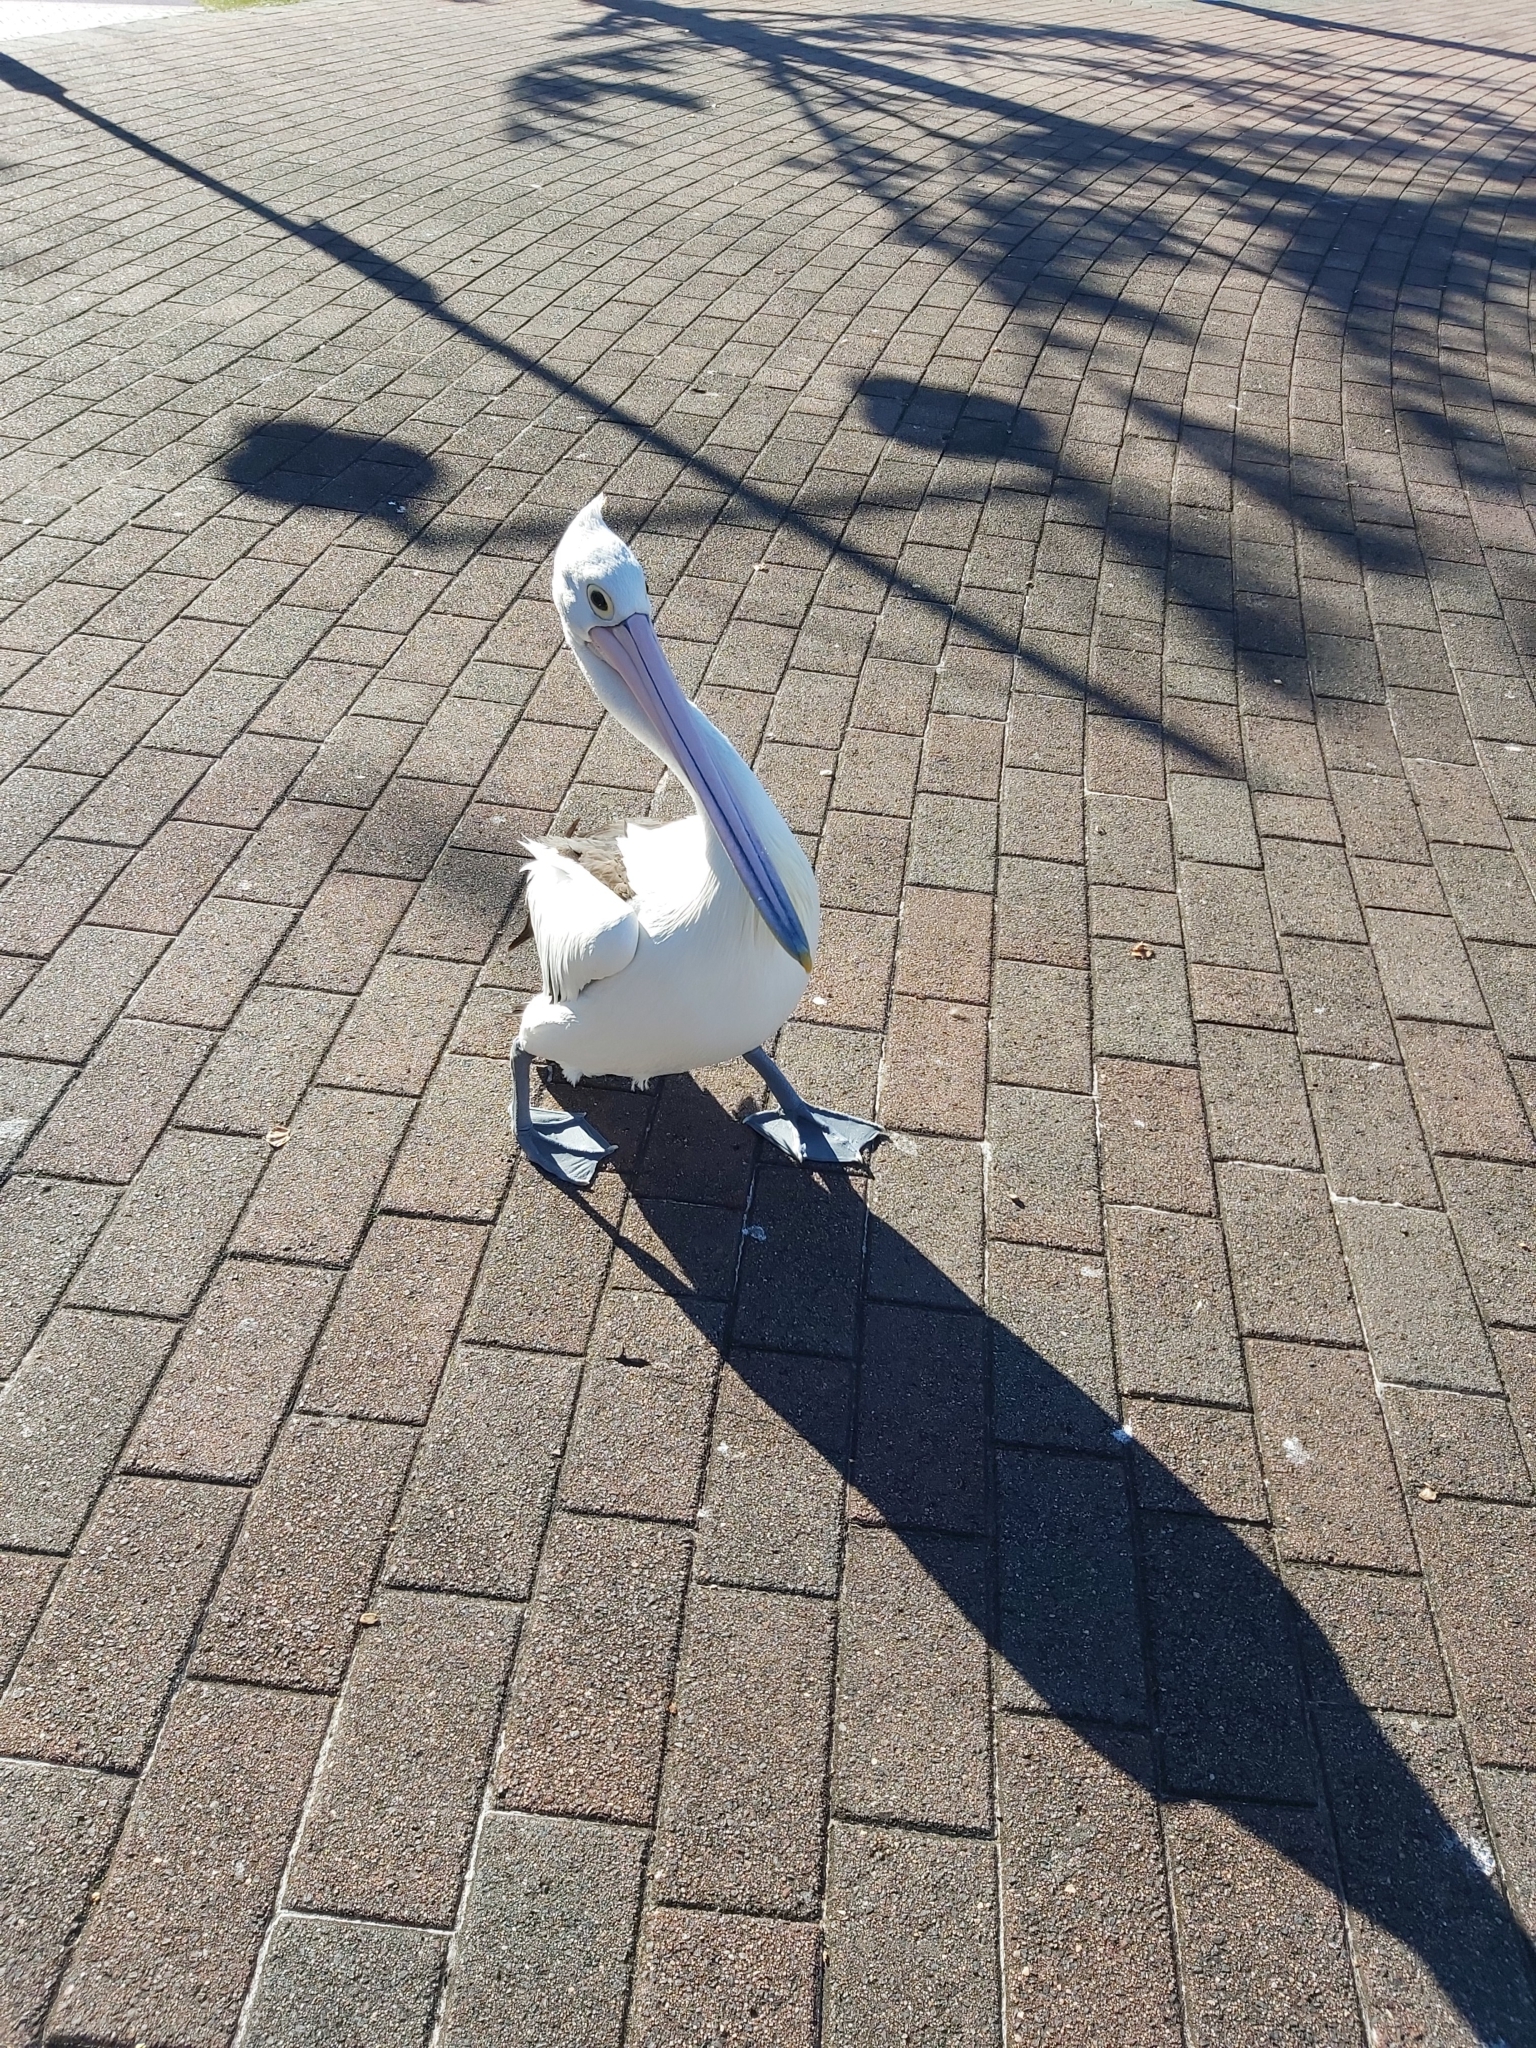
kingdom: Animalia
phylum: Chordata
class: Aves
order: Pelecaniformes
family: Pelecanidae
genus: Pelecanus
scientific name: Pelecanus conspicillatus
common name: Australian pelican
